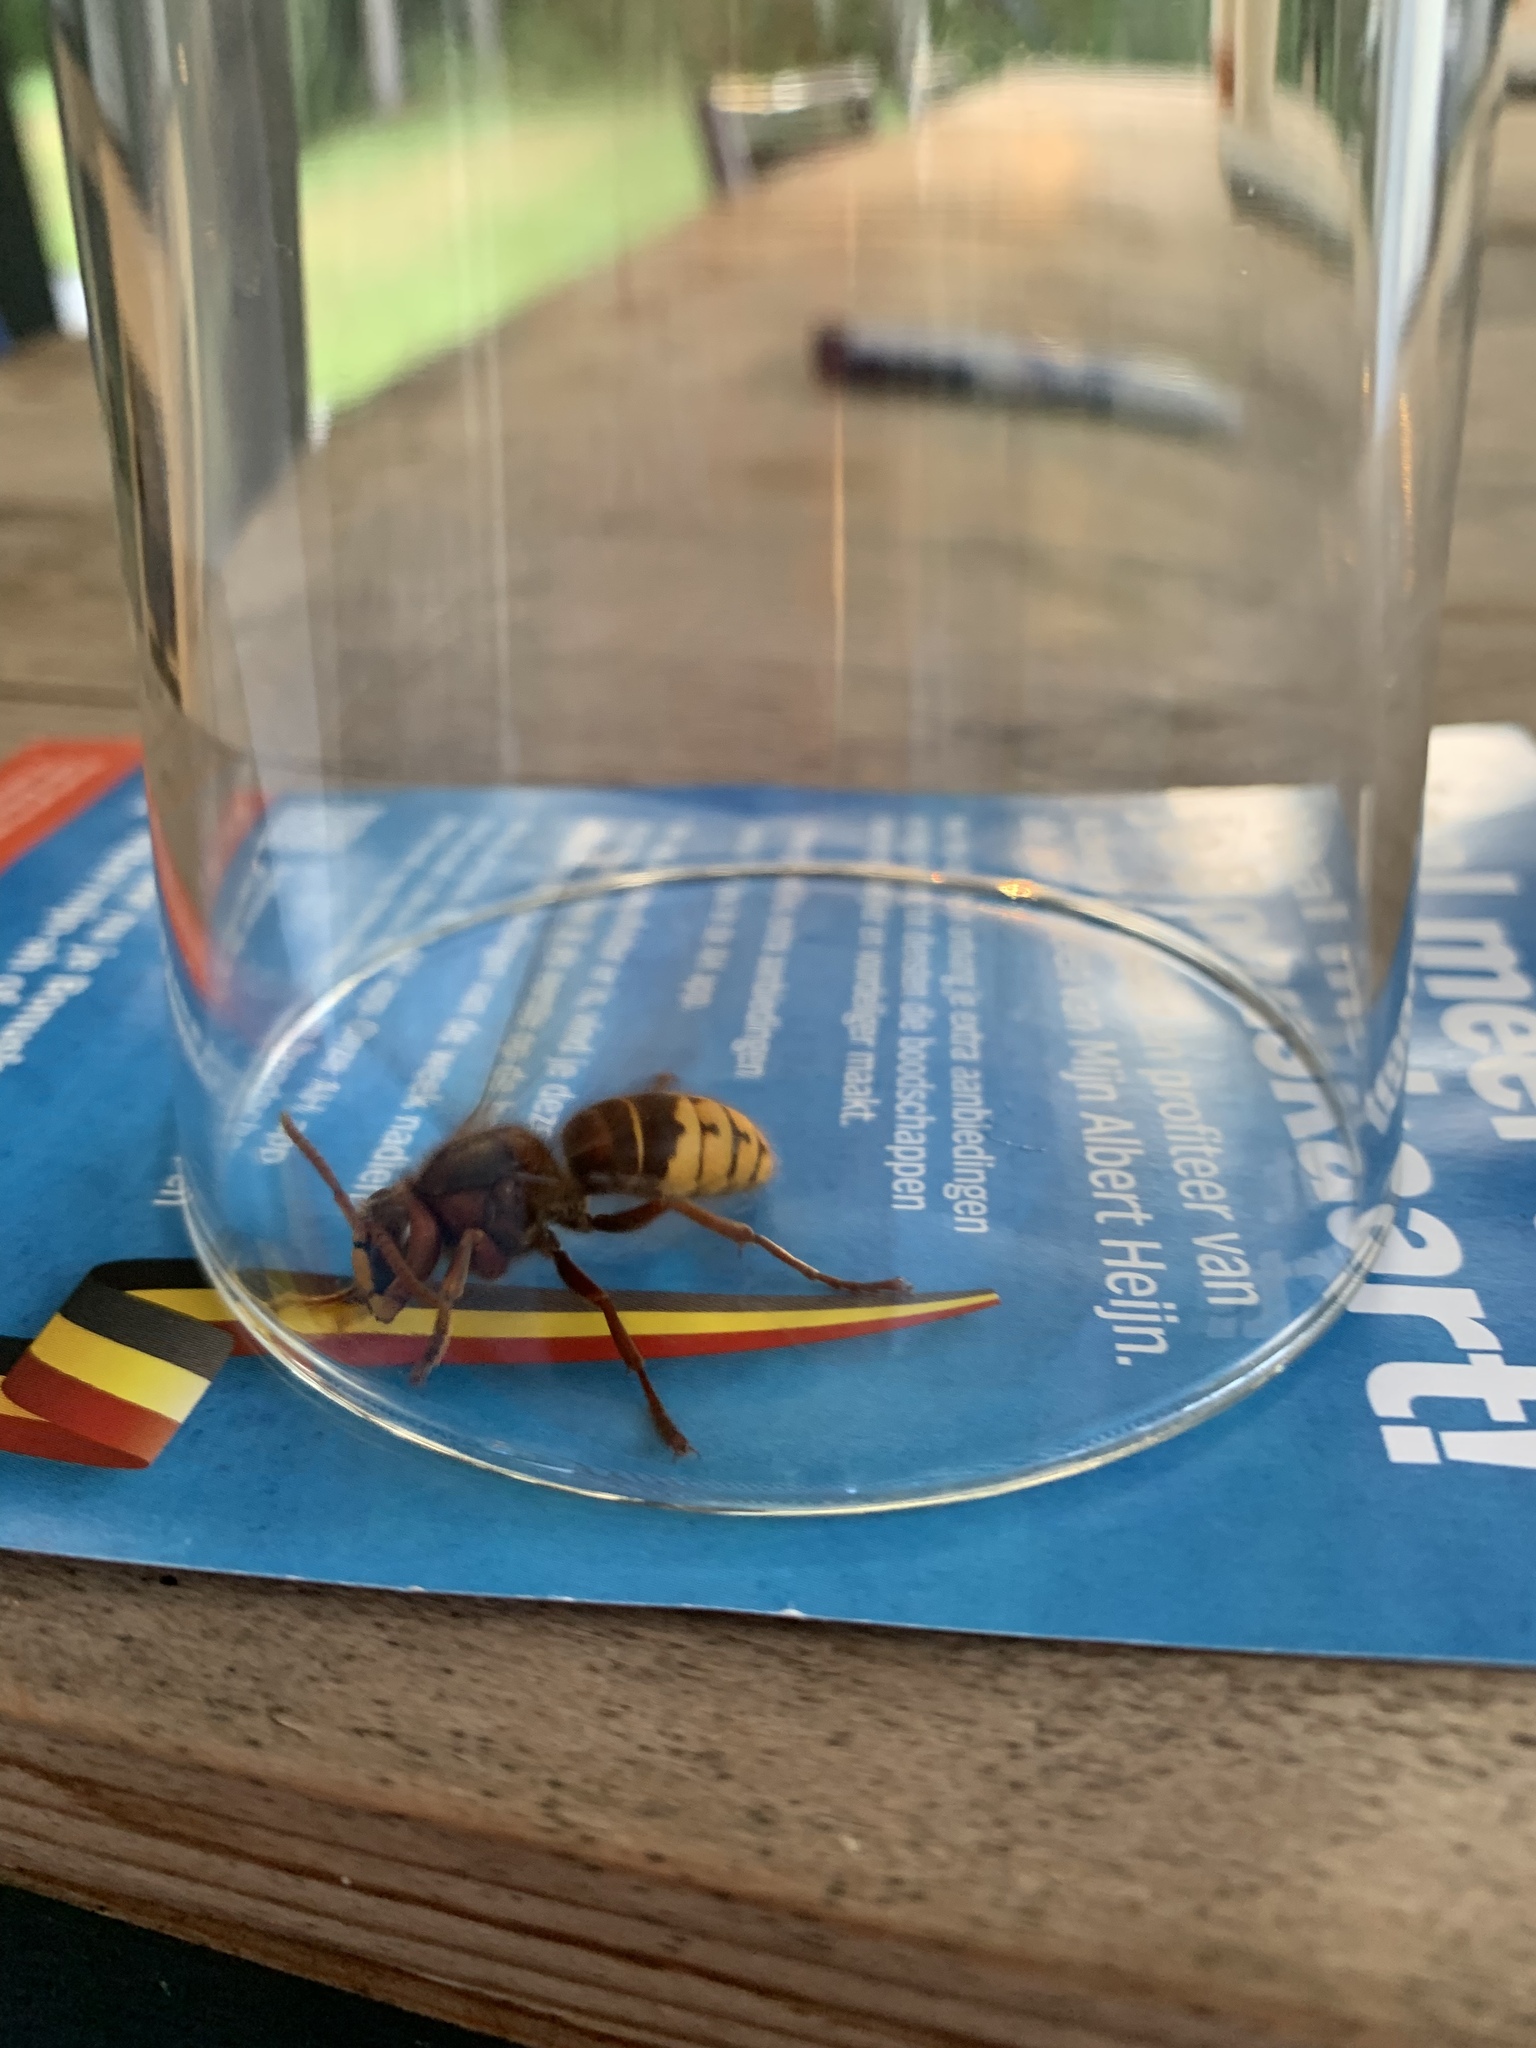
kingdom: Animalia
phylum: Arthropoda
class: Insecta
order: Hymenoptera
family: Vespidae
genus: Vespa
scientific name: Vespa crabro
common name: Hornet
